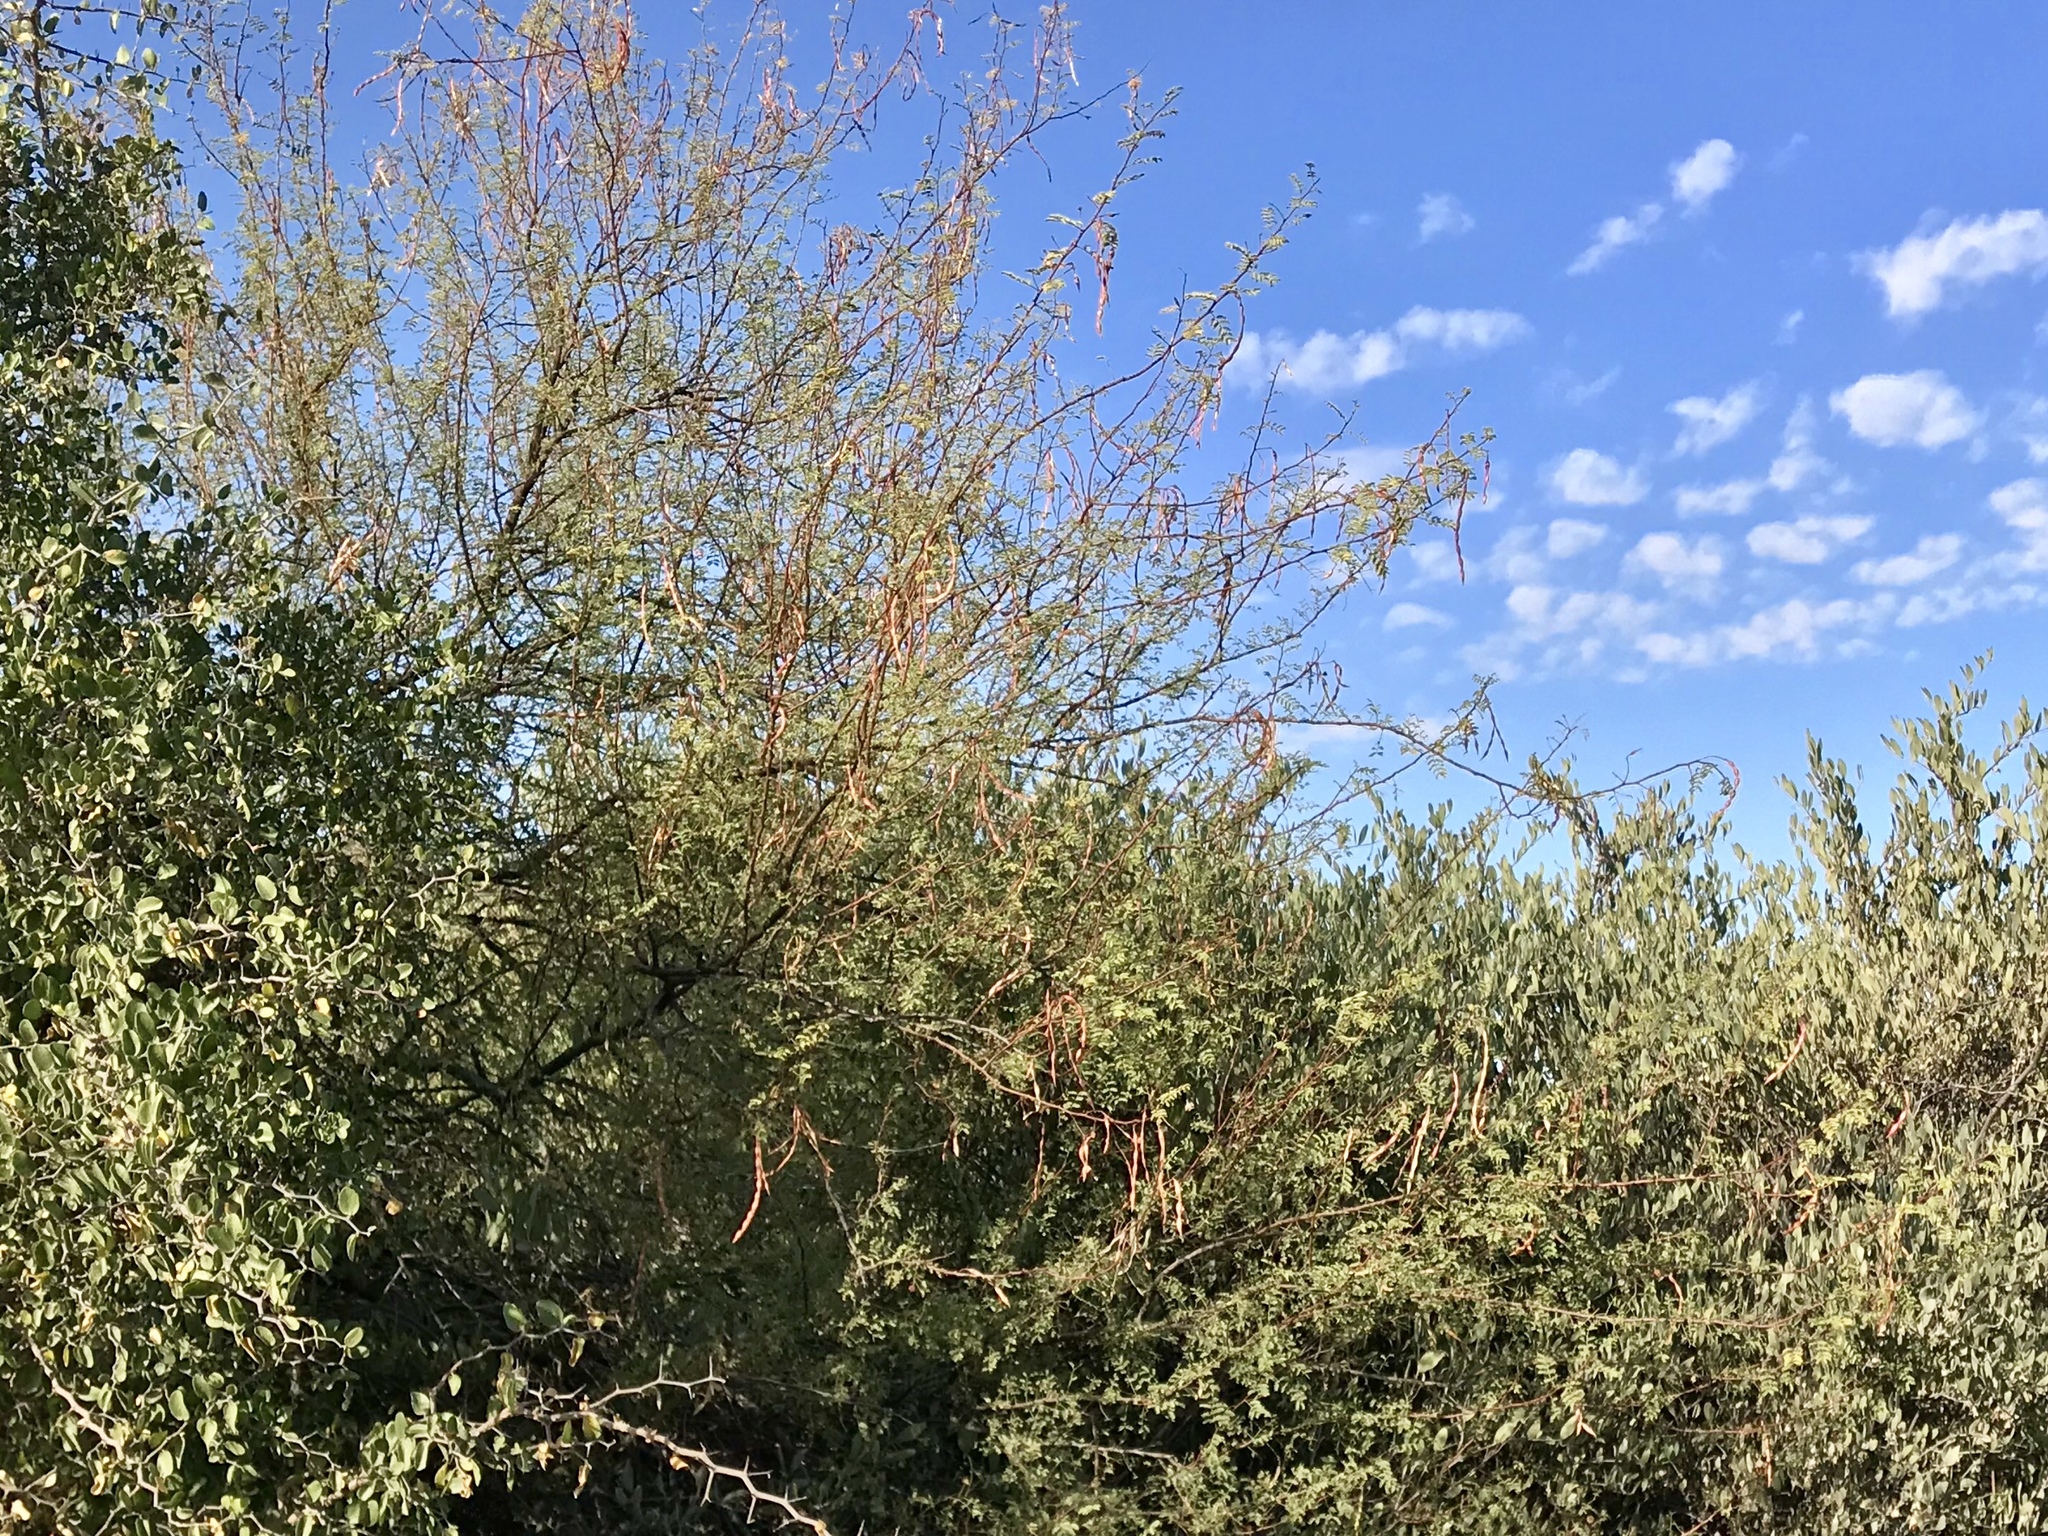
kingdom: Plantae
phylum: Tracheophyta
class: Magnoliopsida
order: Fabales
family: Fabaceae
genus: Vachellia
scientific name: Vachellia constricta
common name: Mescat acacia
